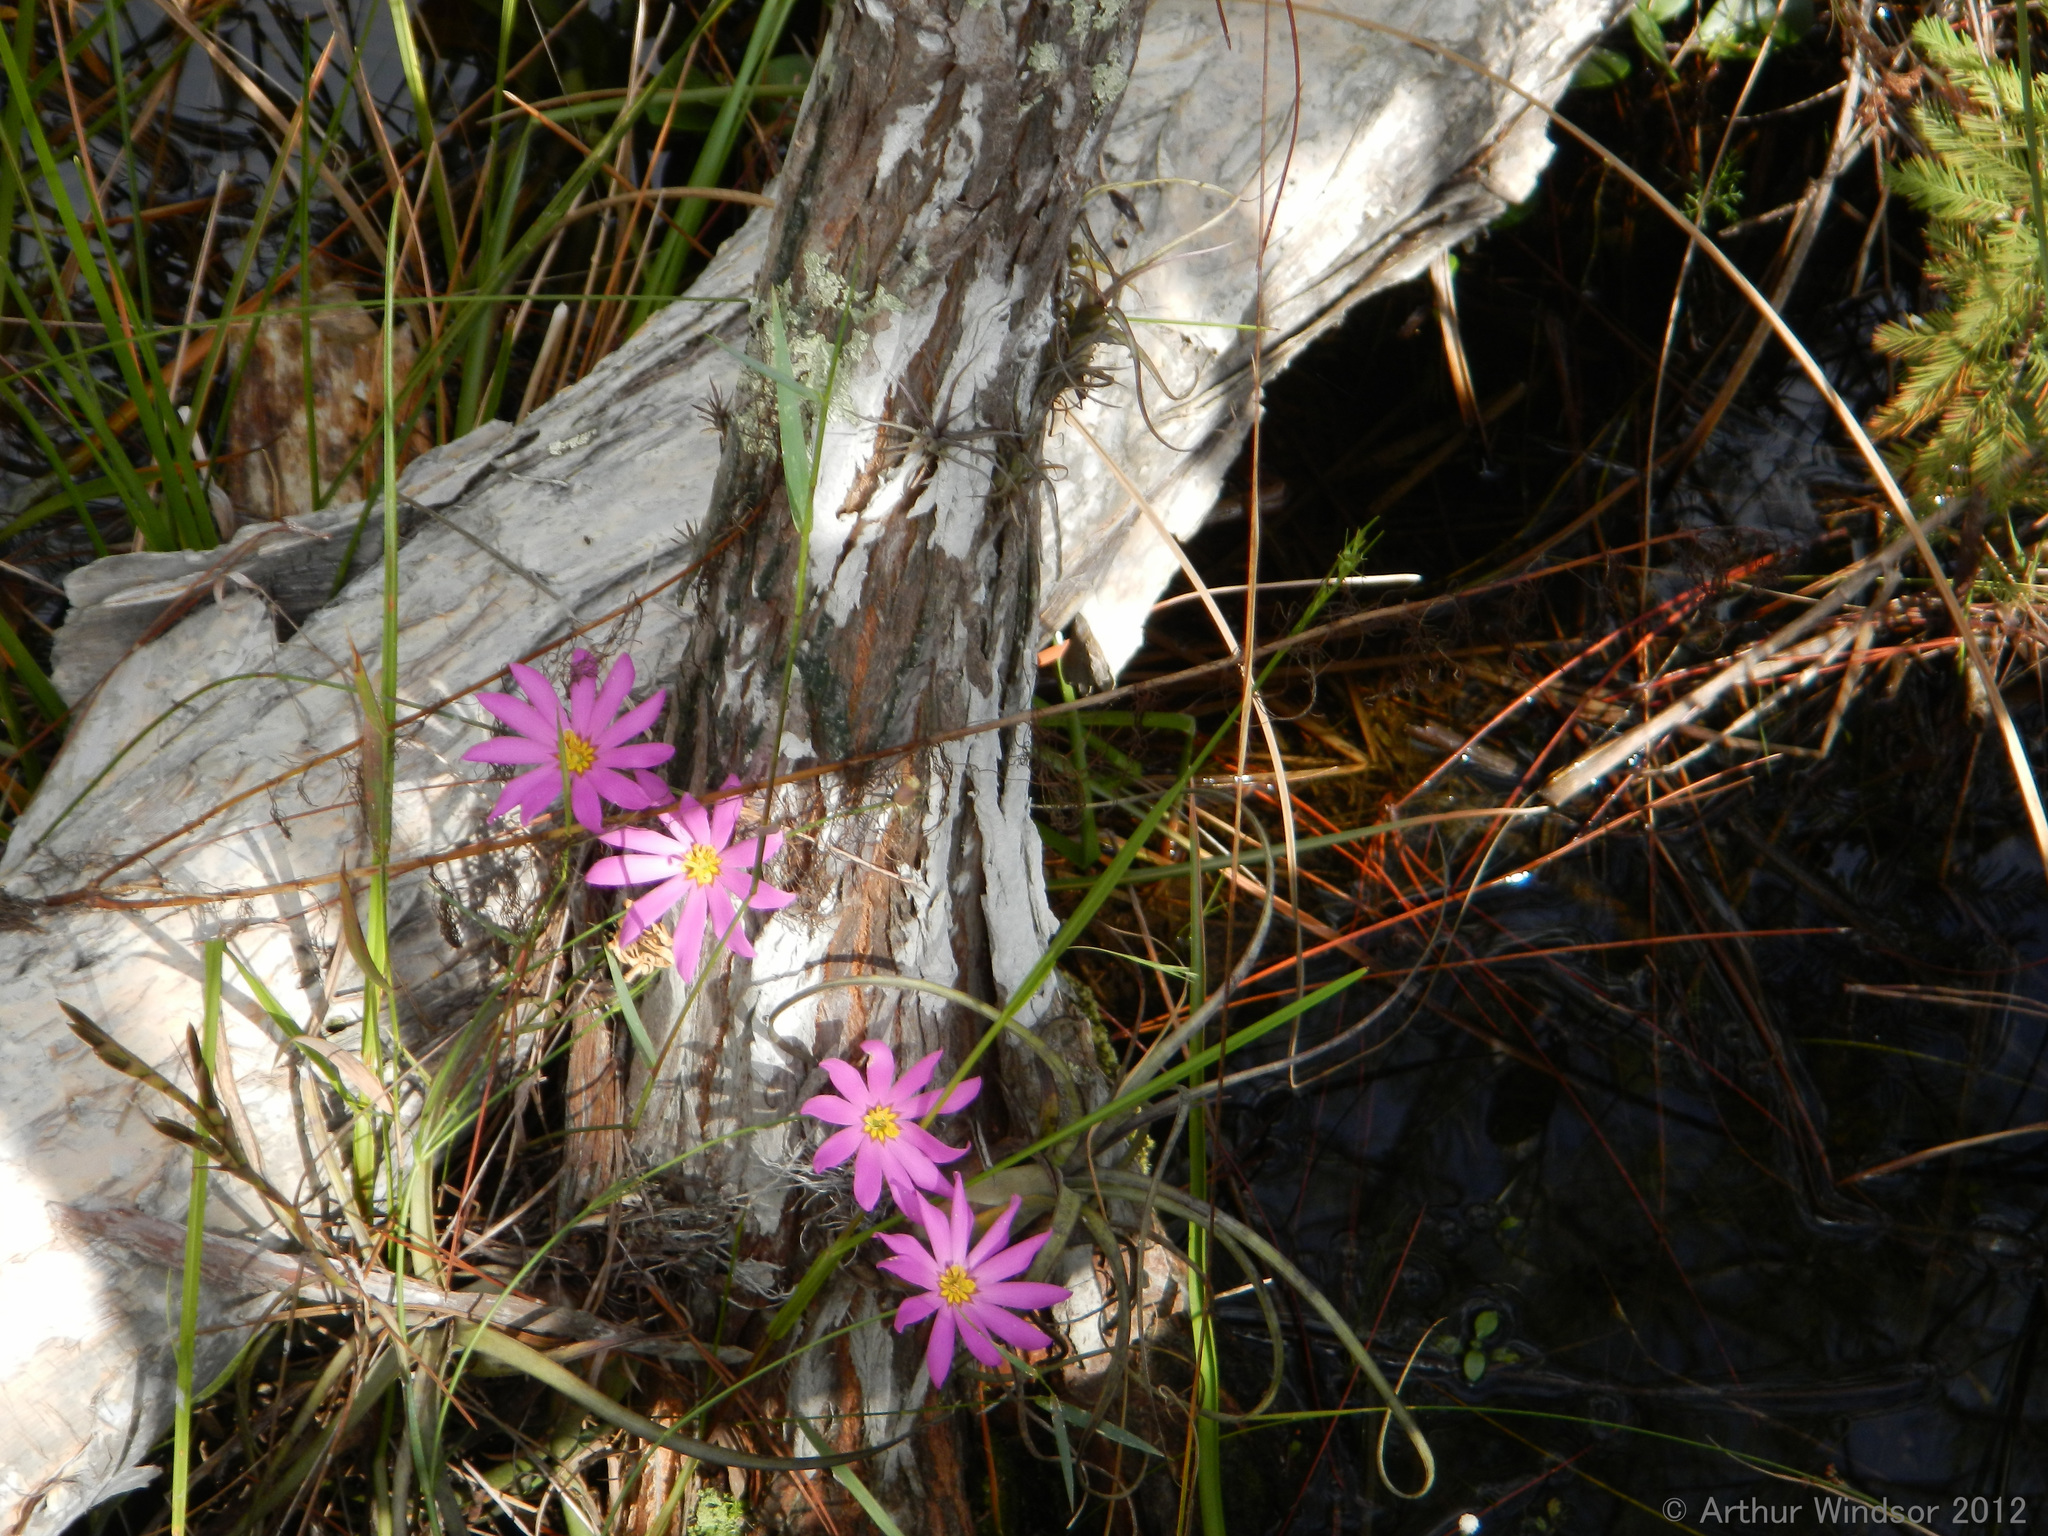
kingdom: Plantae
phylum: Tracheophyta
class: Magnoliopsida
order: Gentianales
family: Gentianaceae
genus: Sabatia
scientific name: Sabatia decandra
